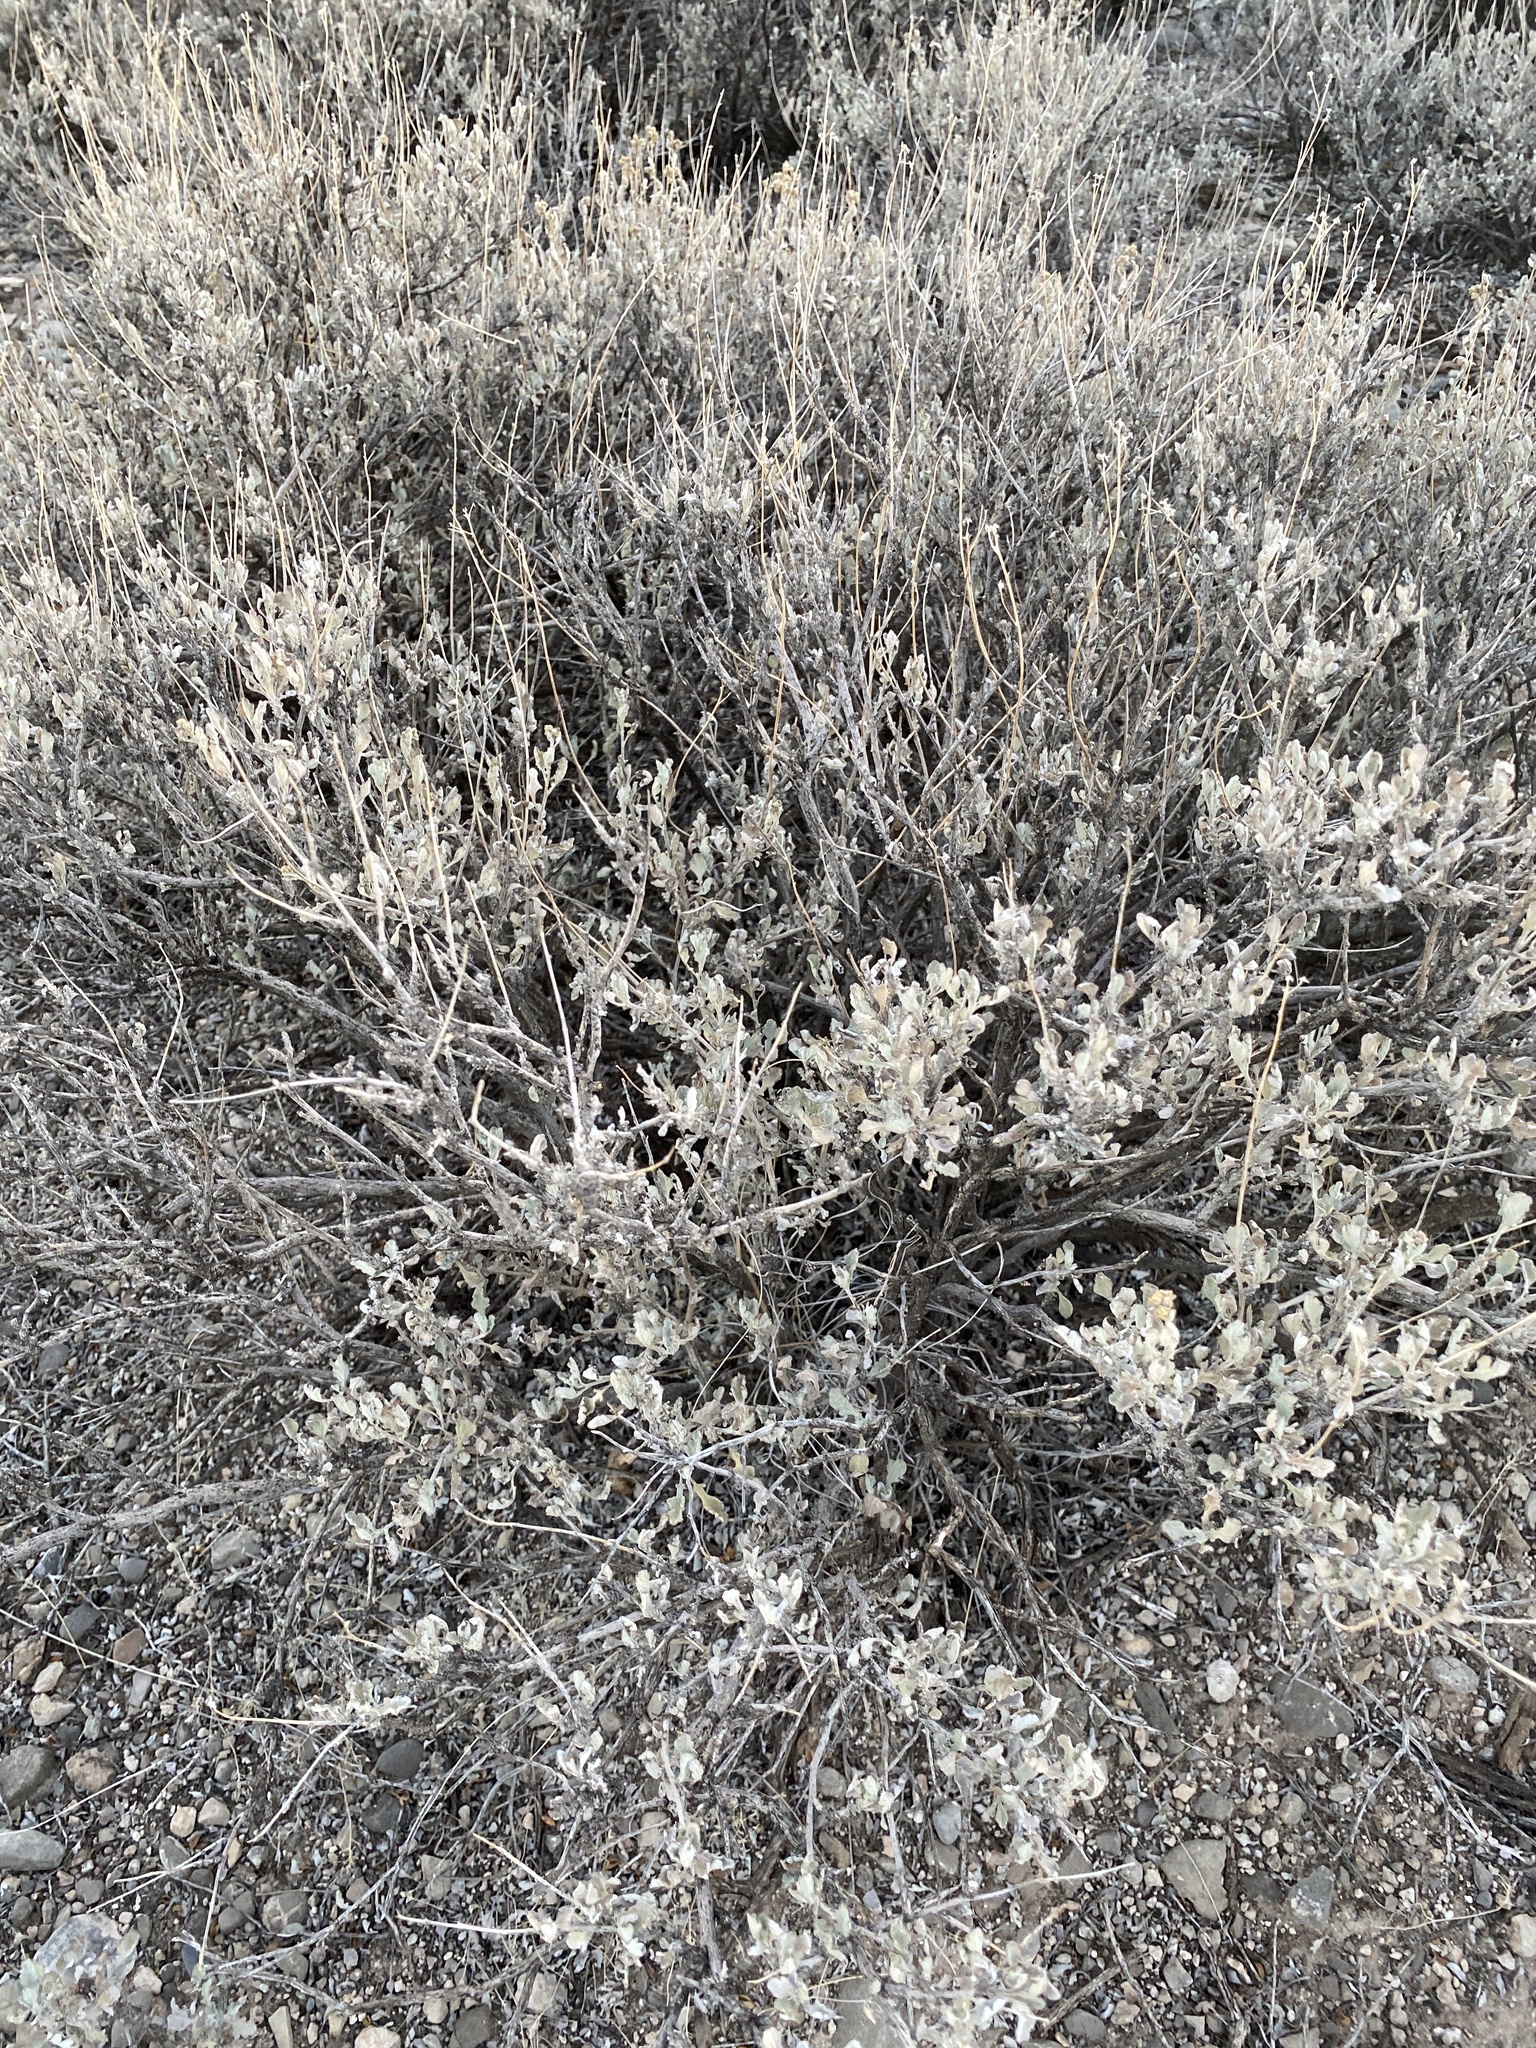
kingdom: Plantae
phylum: Tracheophyta
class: Magnoliopsida
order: Asterales
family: Asteraceae
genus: Parthenium
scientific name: Parthenium incanum
